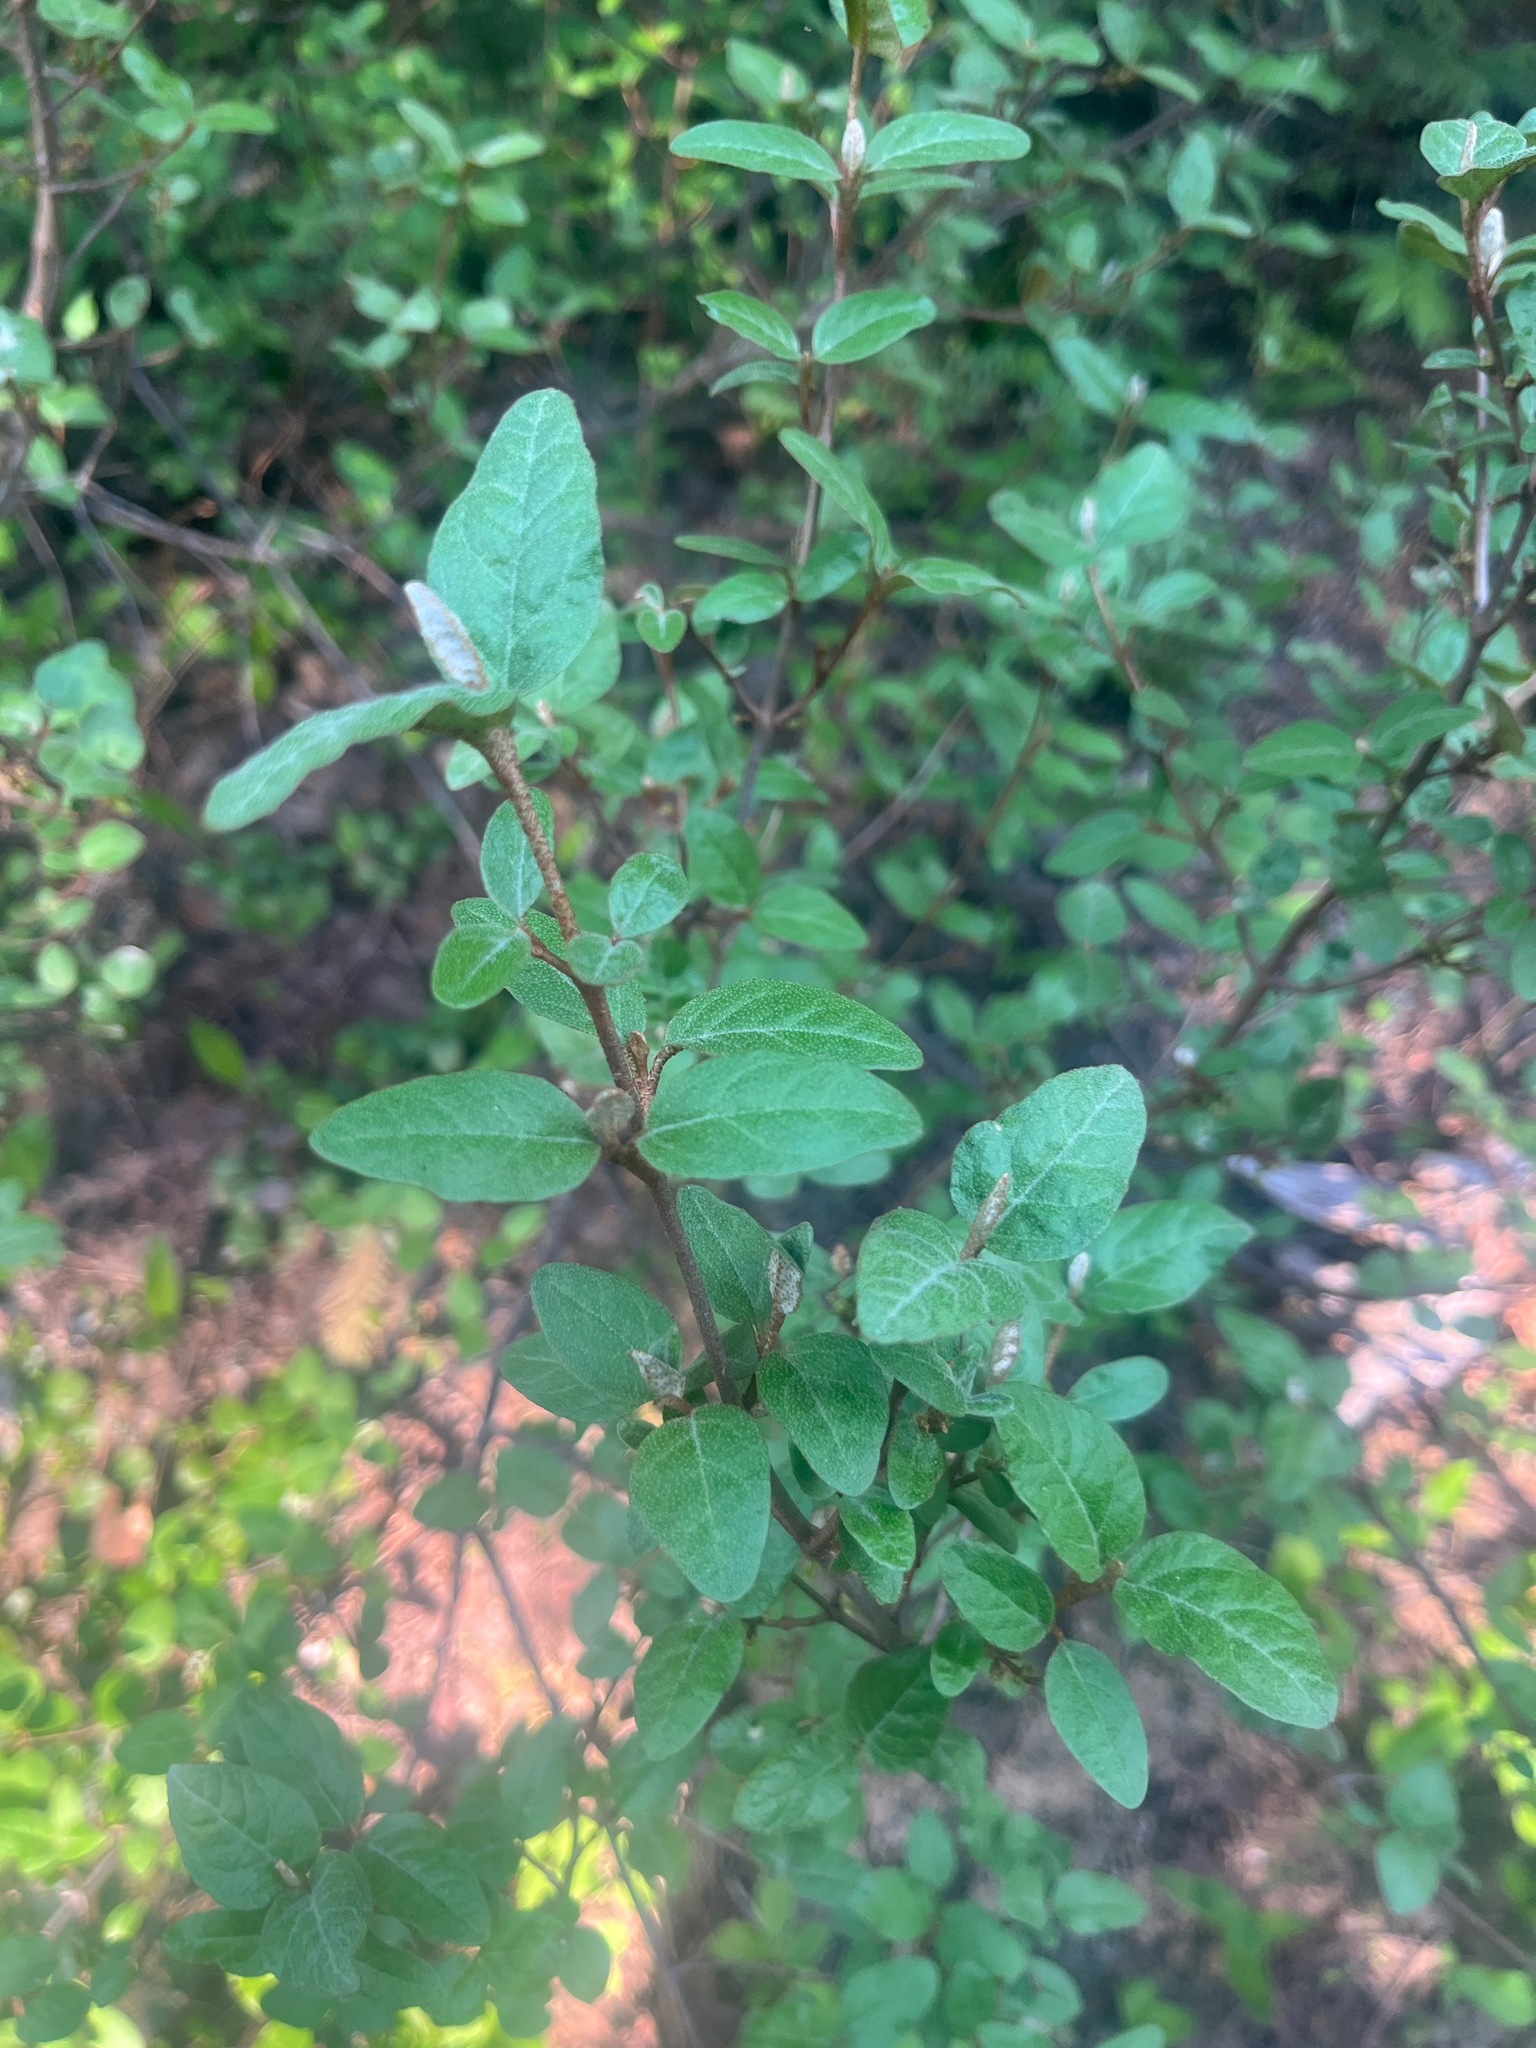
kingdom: Plantae
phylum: Tracheophyta
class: Magnoliopsida
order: Rosales
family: Elaeagnaceae
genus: Shepherdia
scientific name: Shepherdia canadensis
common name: Soapberry
